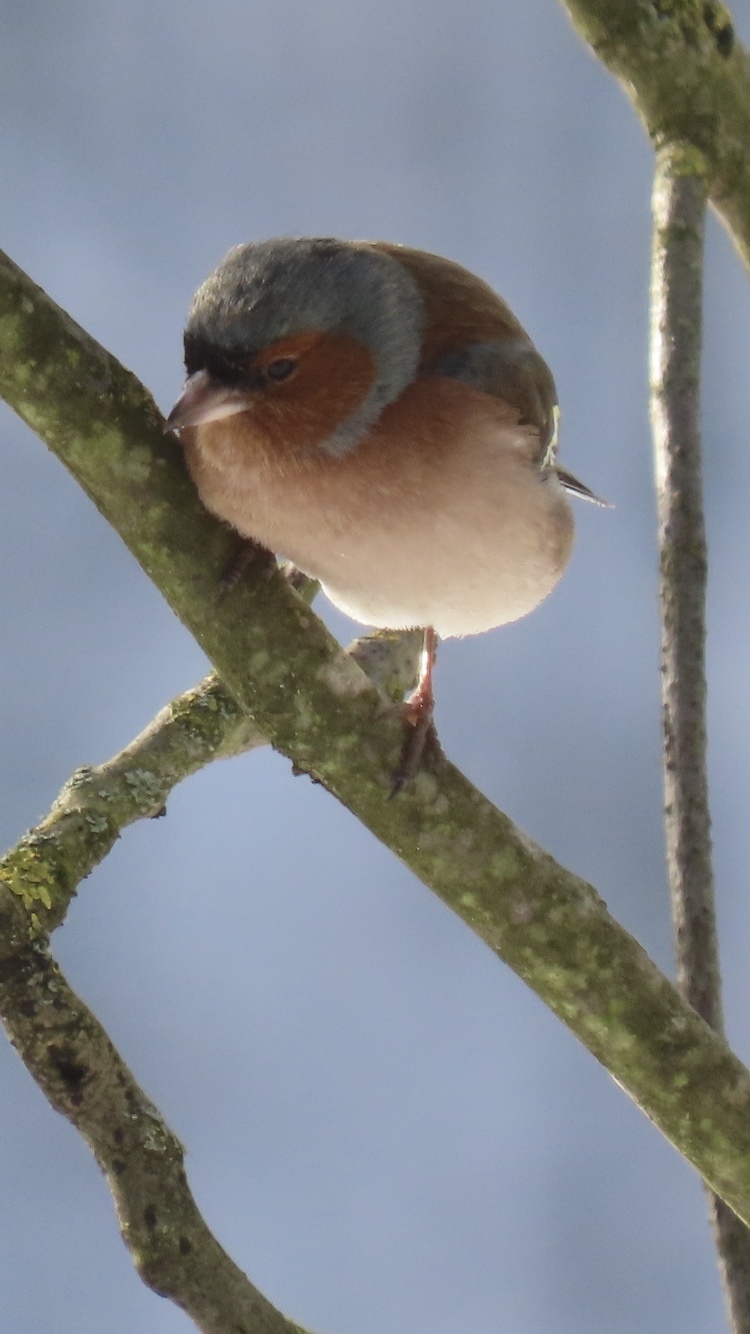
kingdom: Animalia
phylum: Chordata
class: Aves
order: Passeriformes
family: Fringillidae
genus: Fringilla
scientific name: Fringilla coelebs
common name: Common chaffinch
